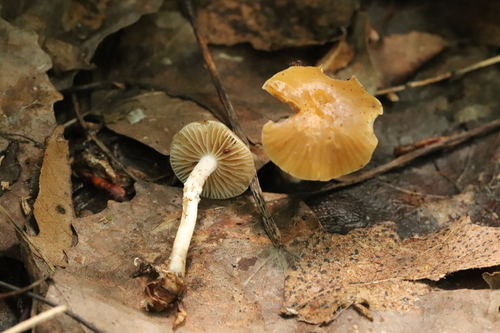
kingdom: Fungi
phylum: Basidiomycota
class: Agaricomycetes
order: Agaricales
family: Tubariaceae
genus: Tubaria
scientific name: Tubaria furfuracea
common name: Scurfy twiglet
